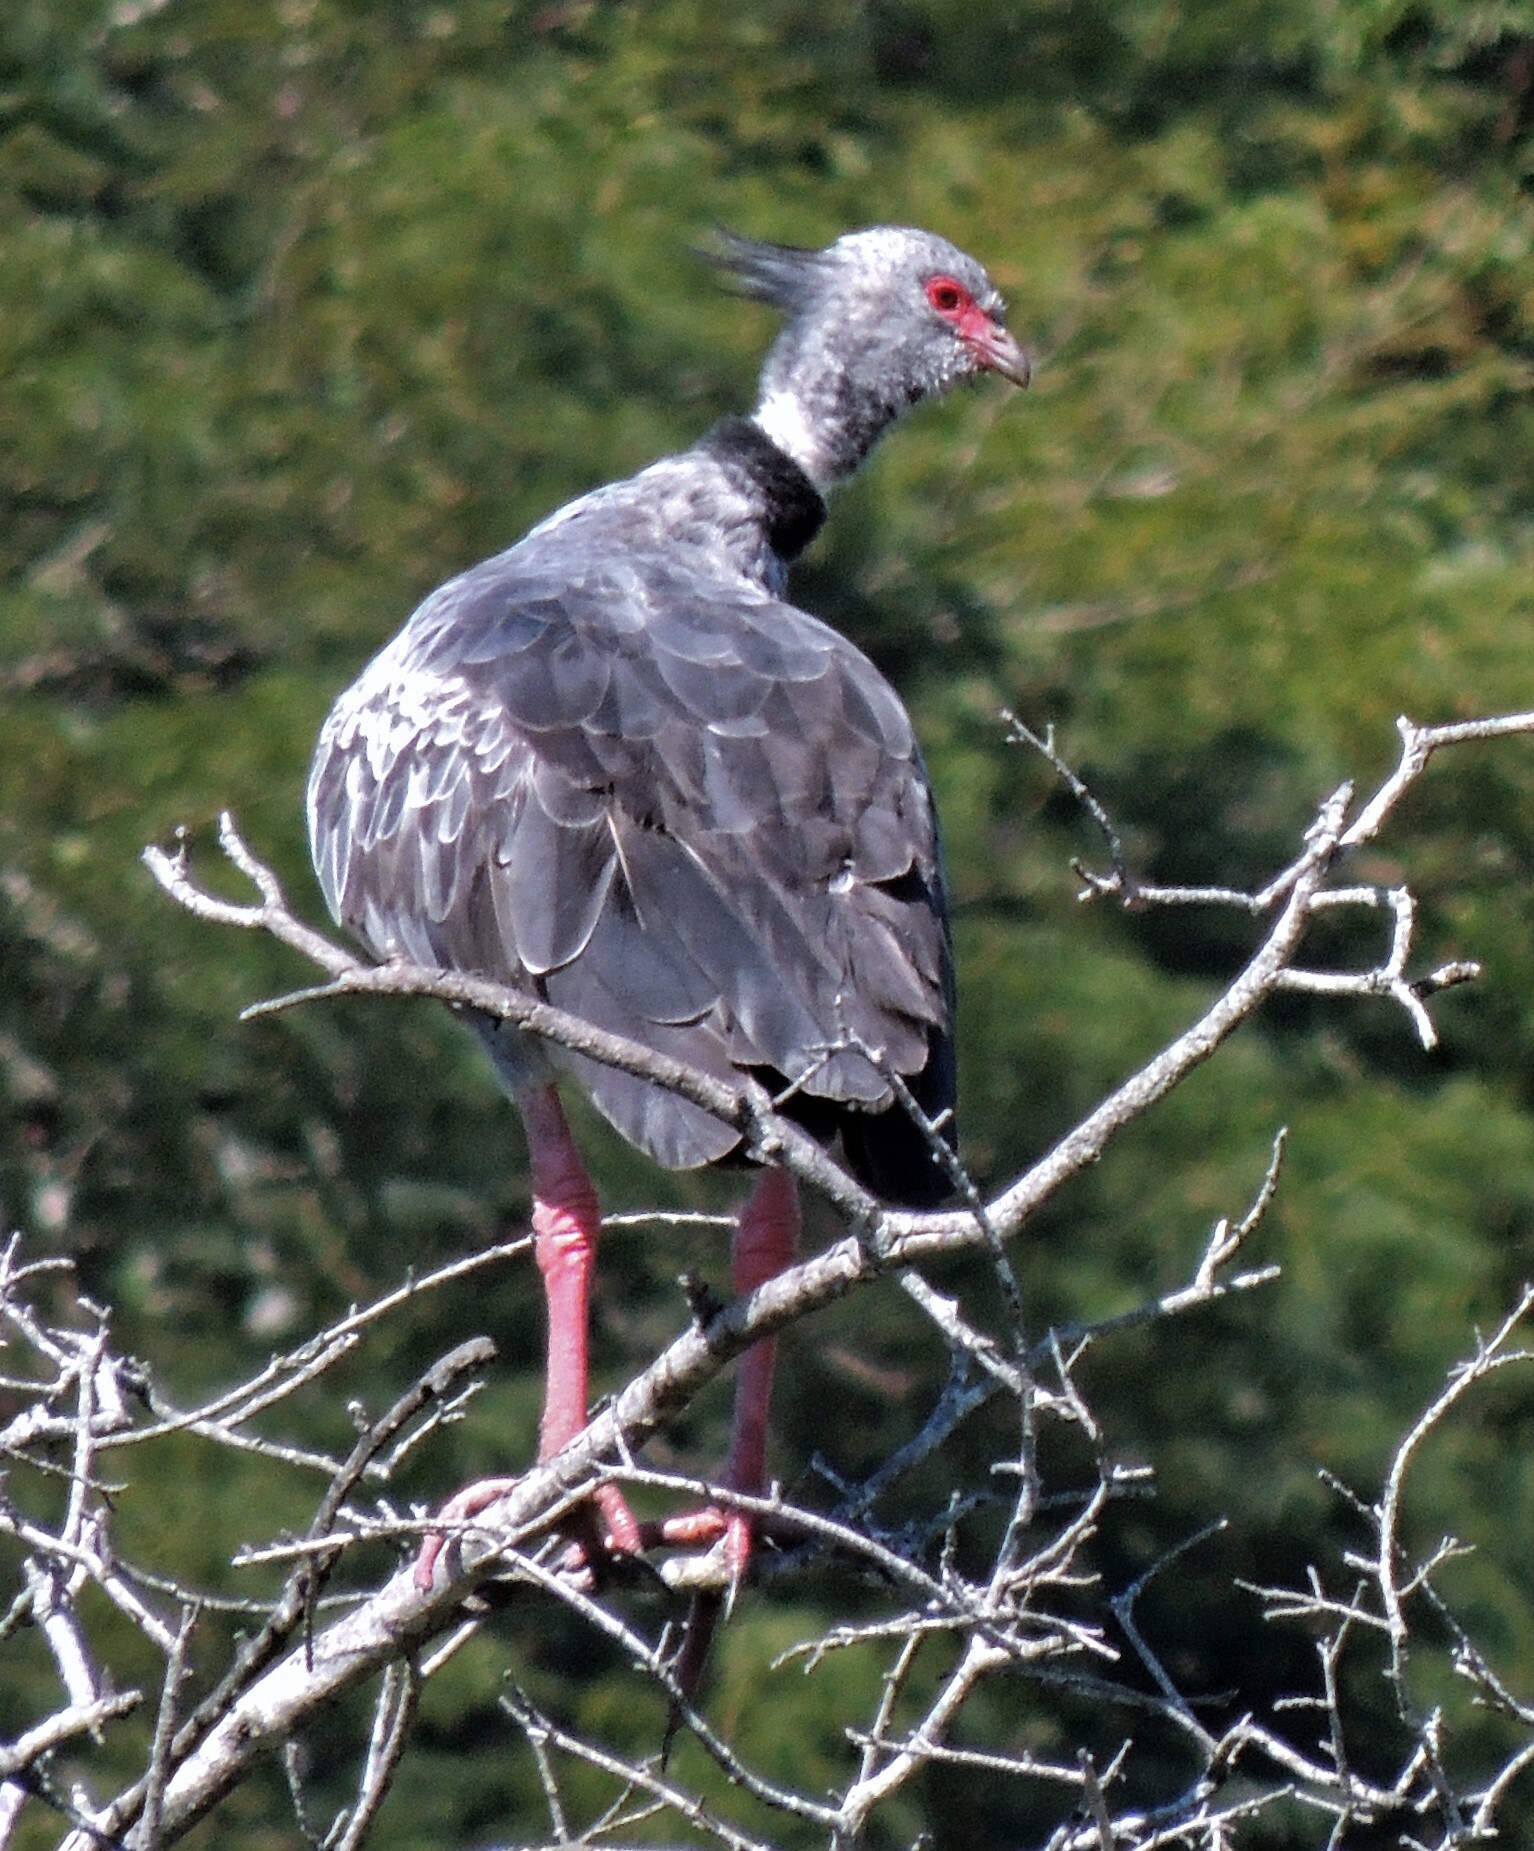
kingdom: Animalia
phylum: Chordata
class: Aves
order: Anseriformes
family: Anhimidae
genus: Chauna
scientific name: Chauna torquata
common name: Southern screamer
